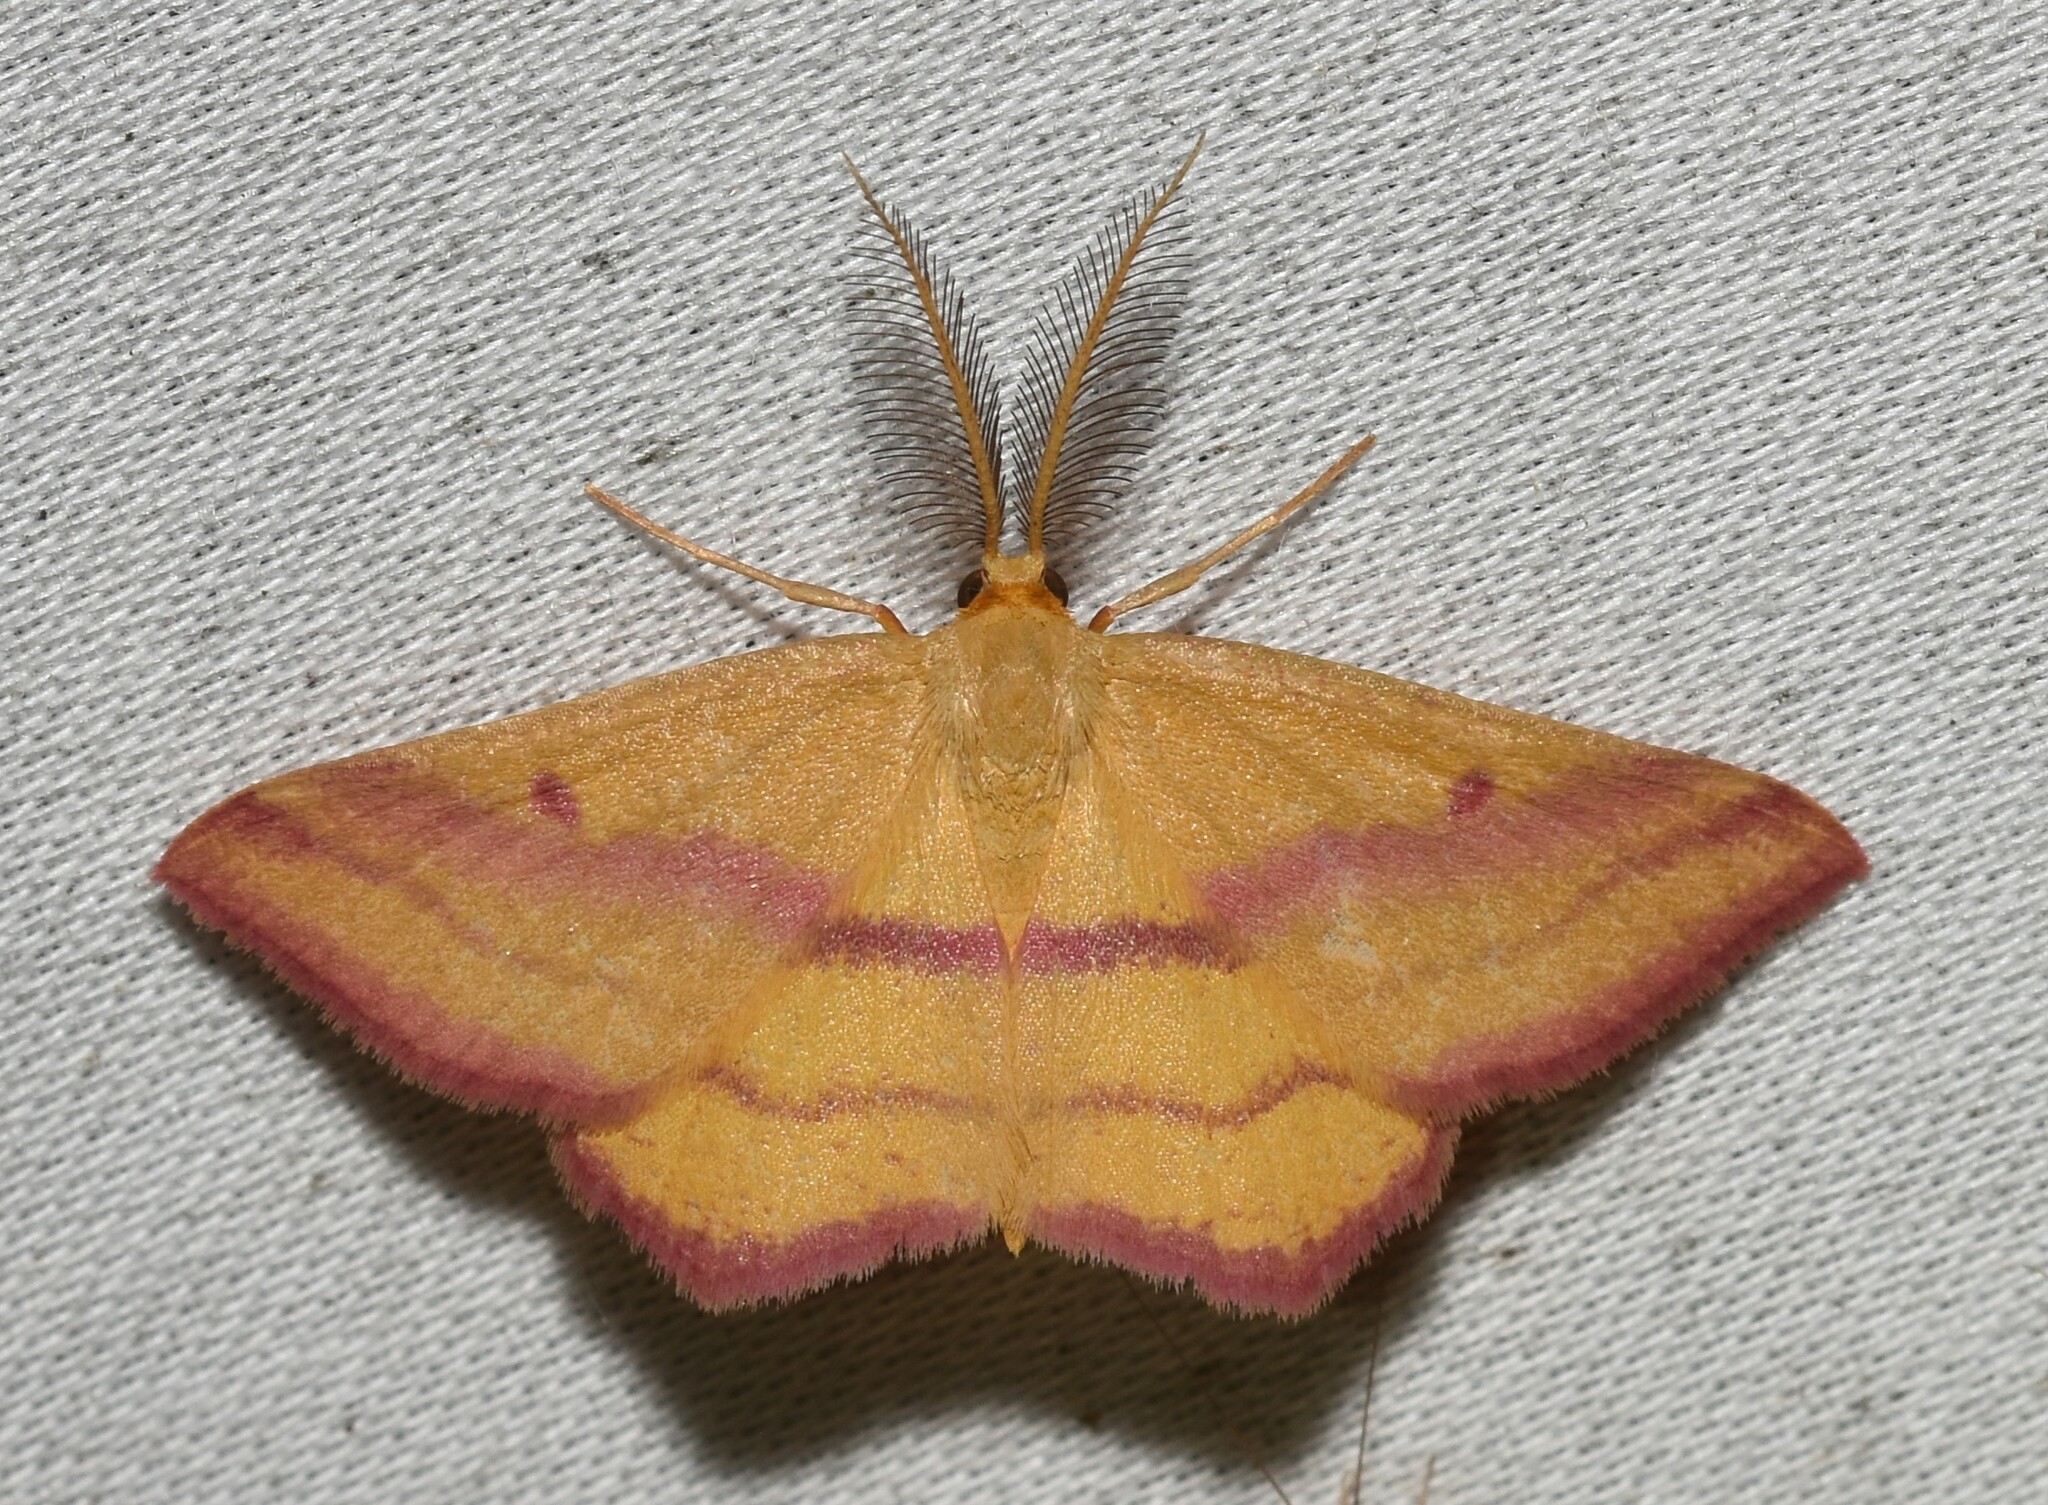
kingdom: Animalia
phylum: Arthropoda
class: Insecta
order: Lepidoptera
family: Geometridae
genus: Haematopis
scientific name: Haematopis grataria
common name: Chickweed geometer
